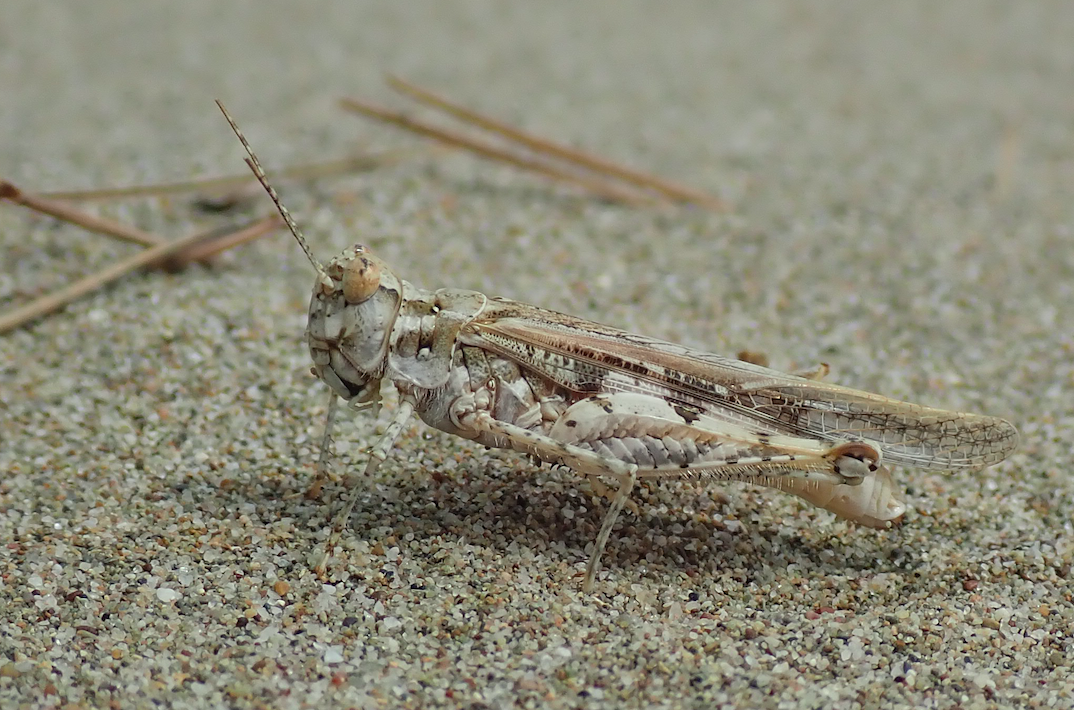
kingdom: Animalia
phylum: Arthropoda
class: Insecta
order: Orthoptera
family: Acrididae
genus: Acrotylus
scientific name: Acrotylus longipes
